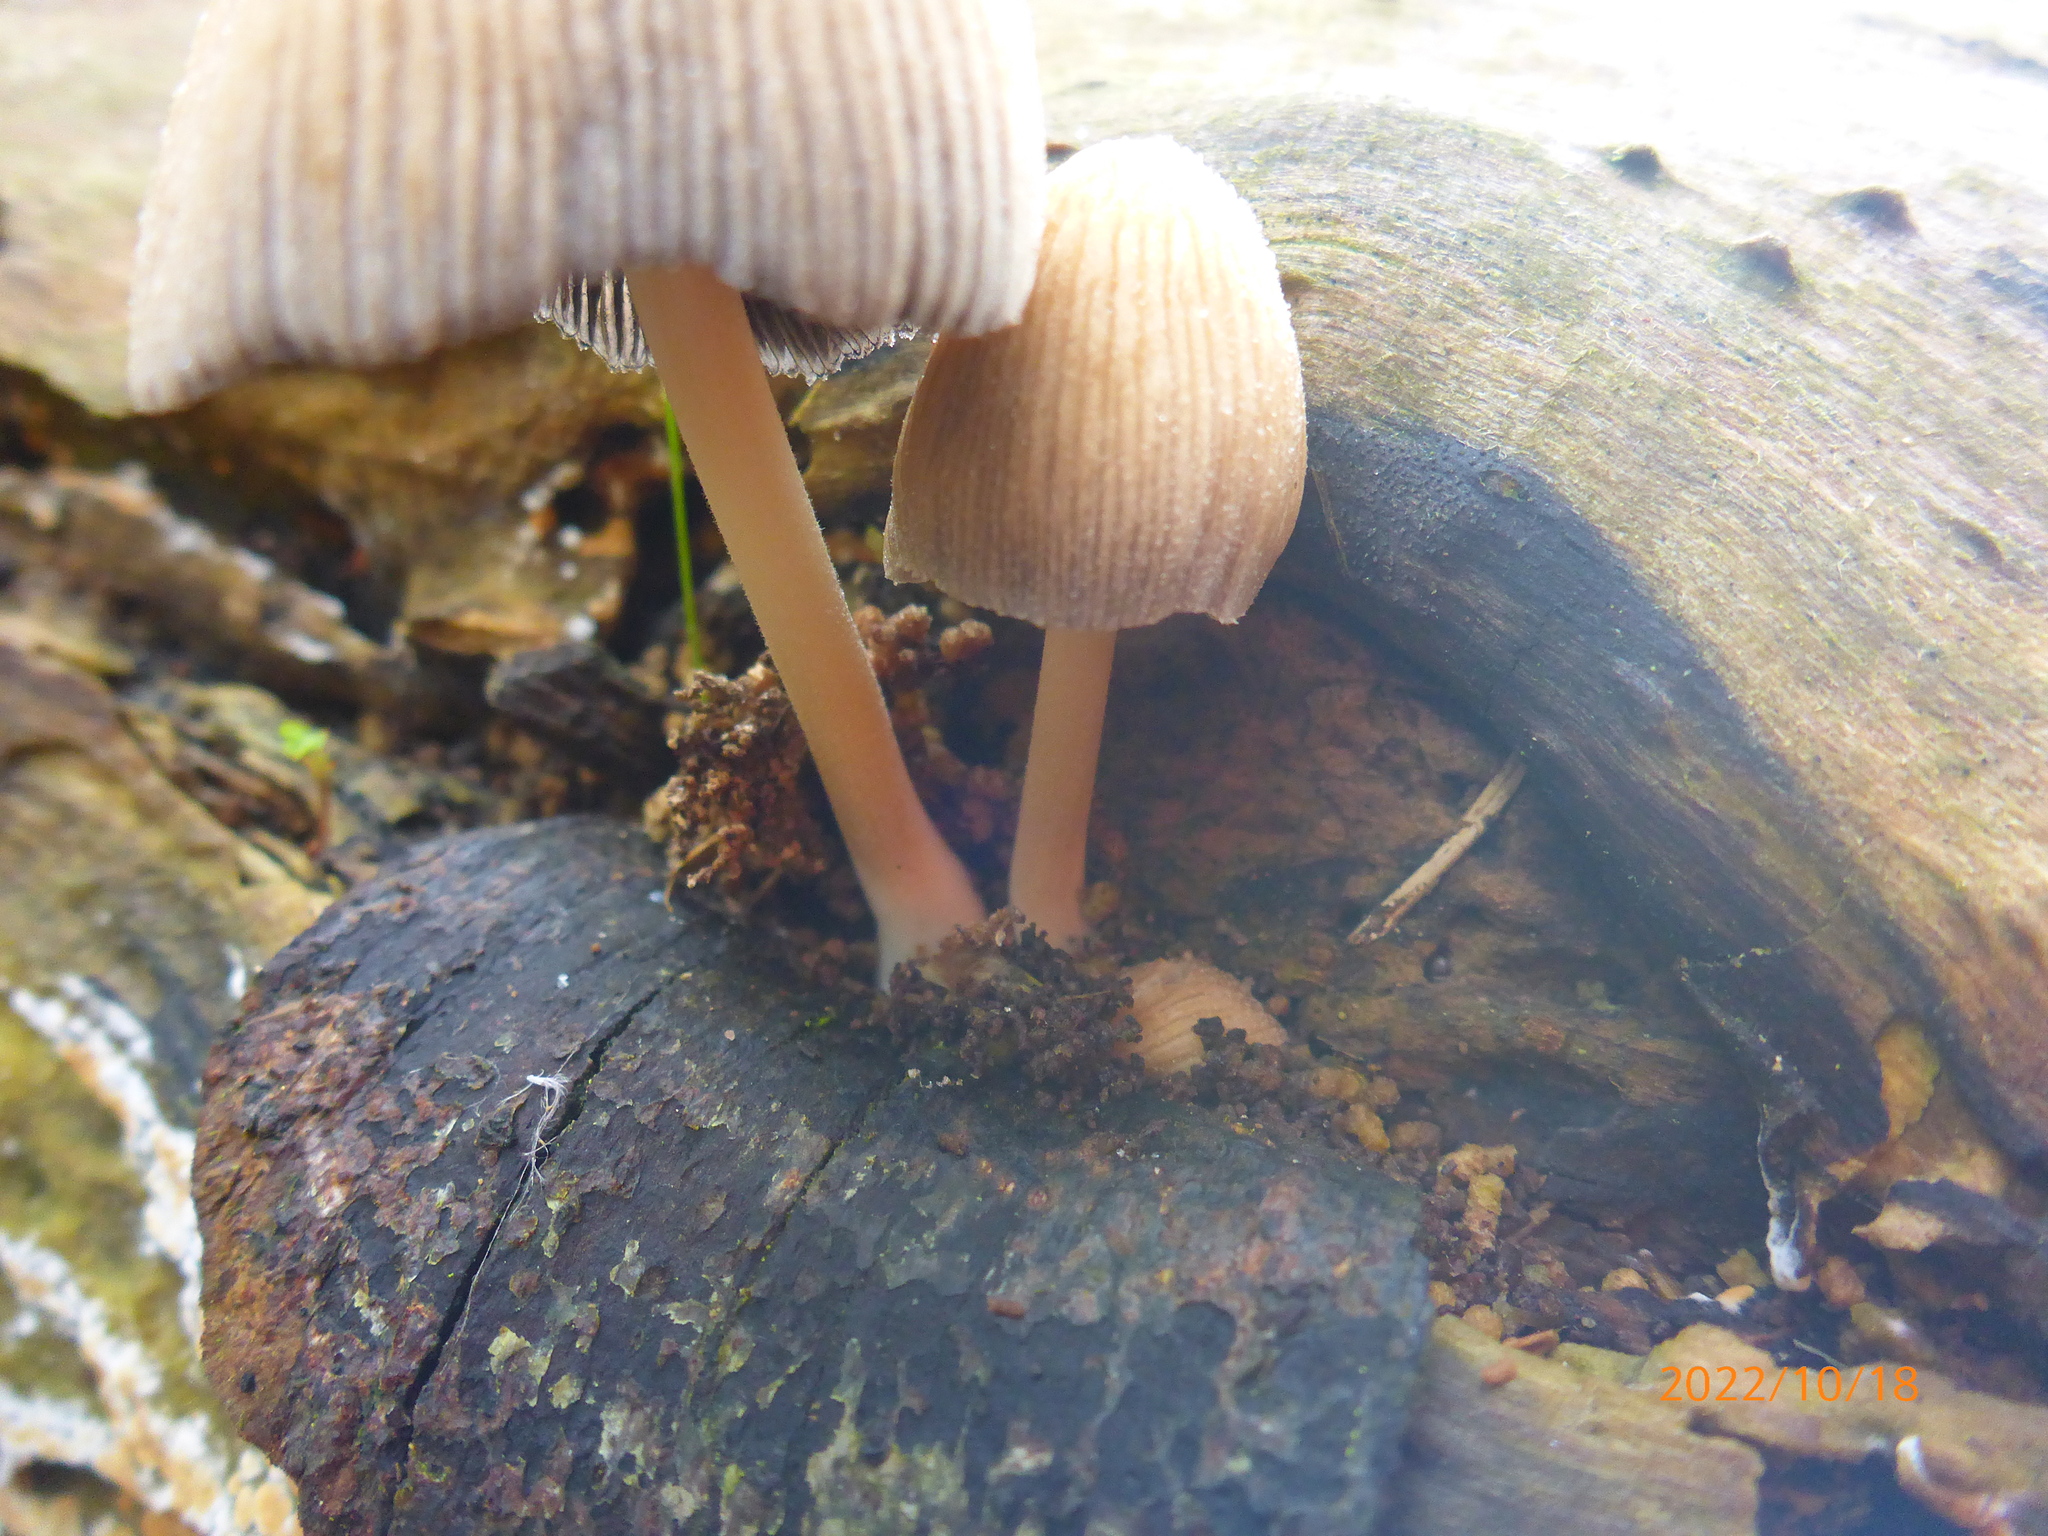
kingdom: Fungi
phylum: Basidiomycota
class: Agaricomycetes
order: Agaricales
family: Psathyrellaceae
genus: Coprinellus
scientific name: Coprinellus micaceus
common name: Glistening ink-cap
